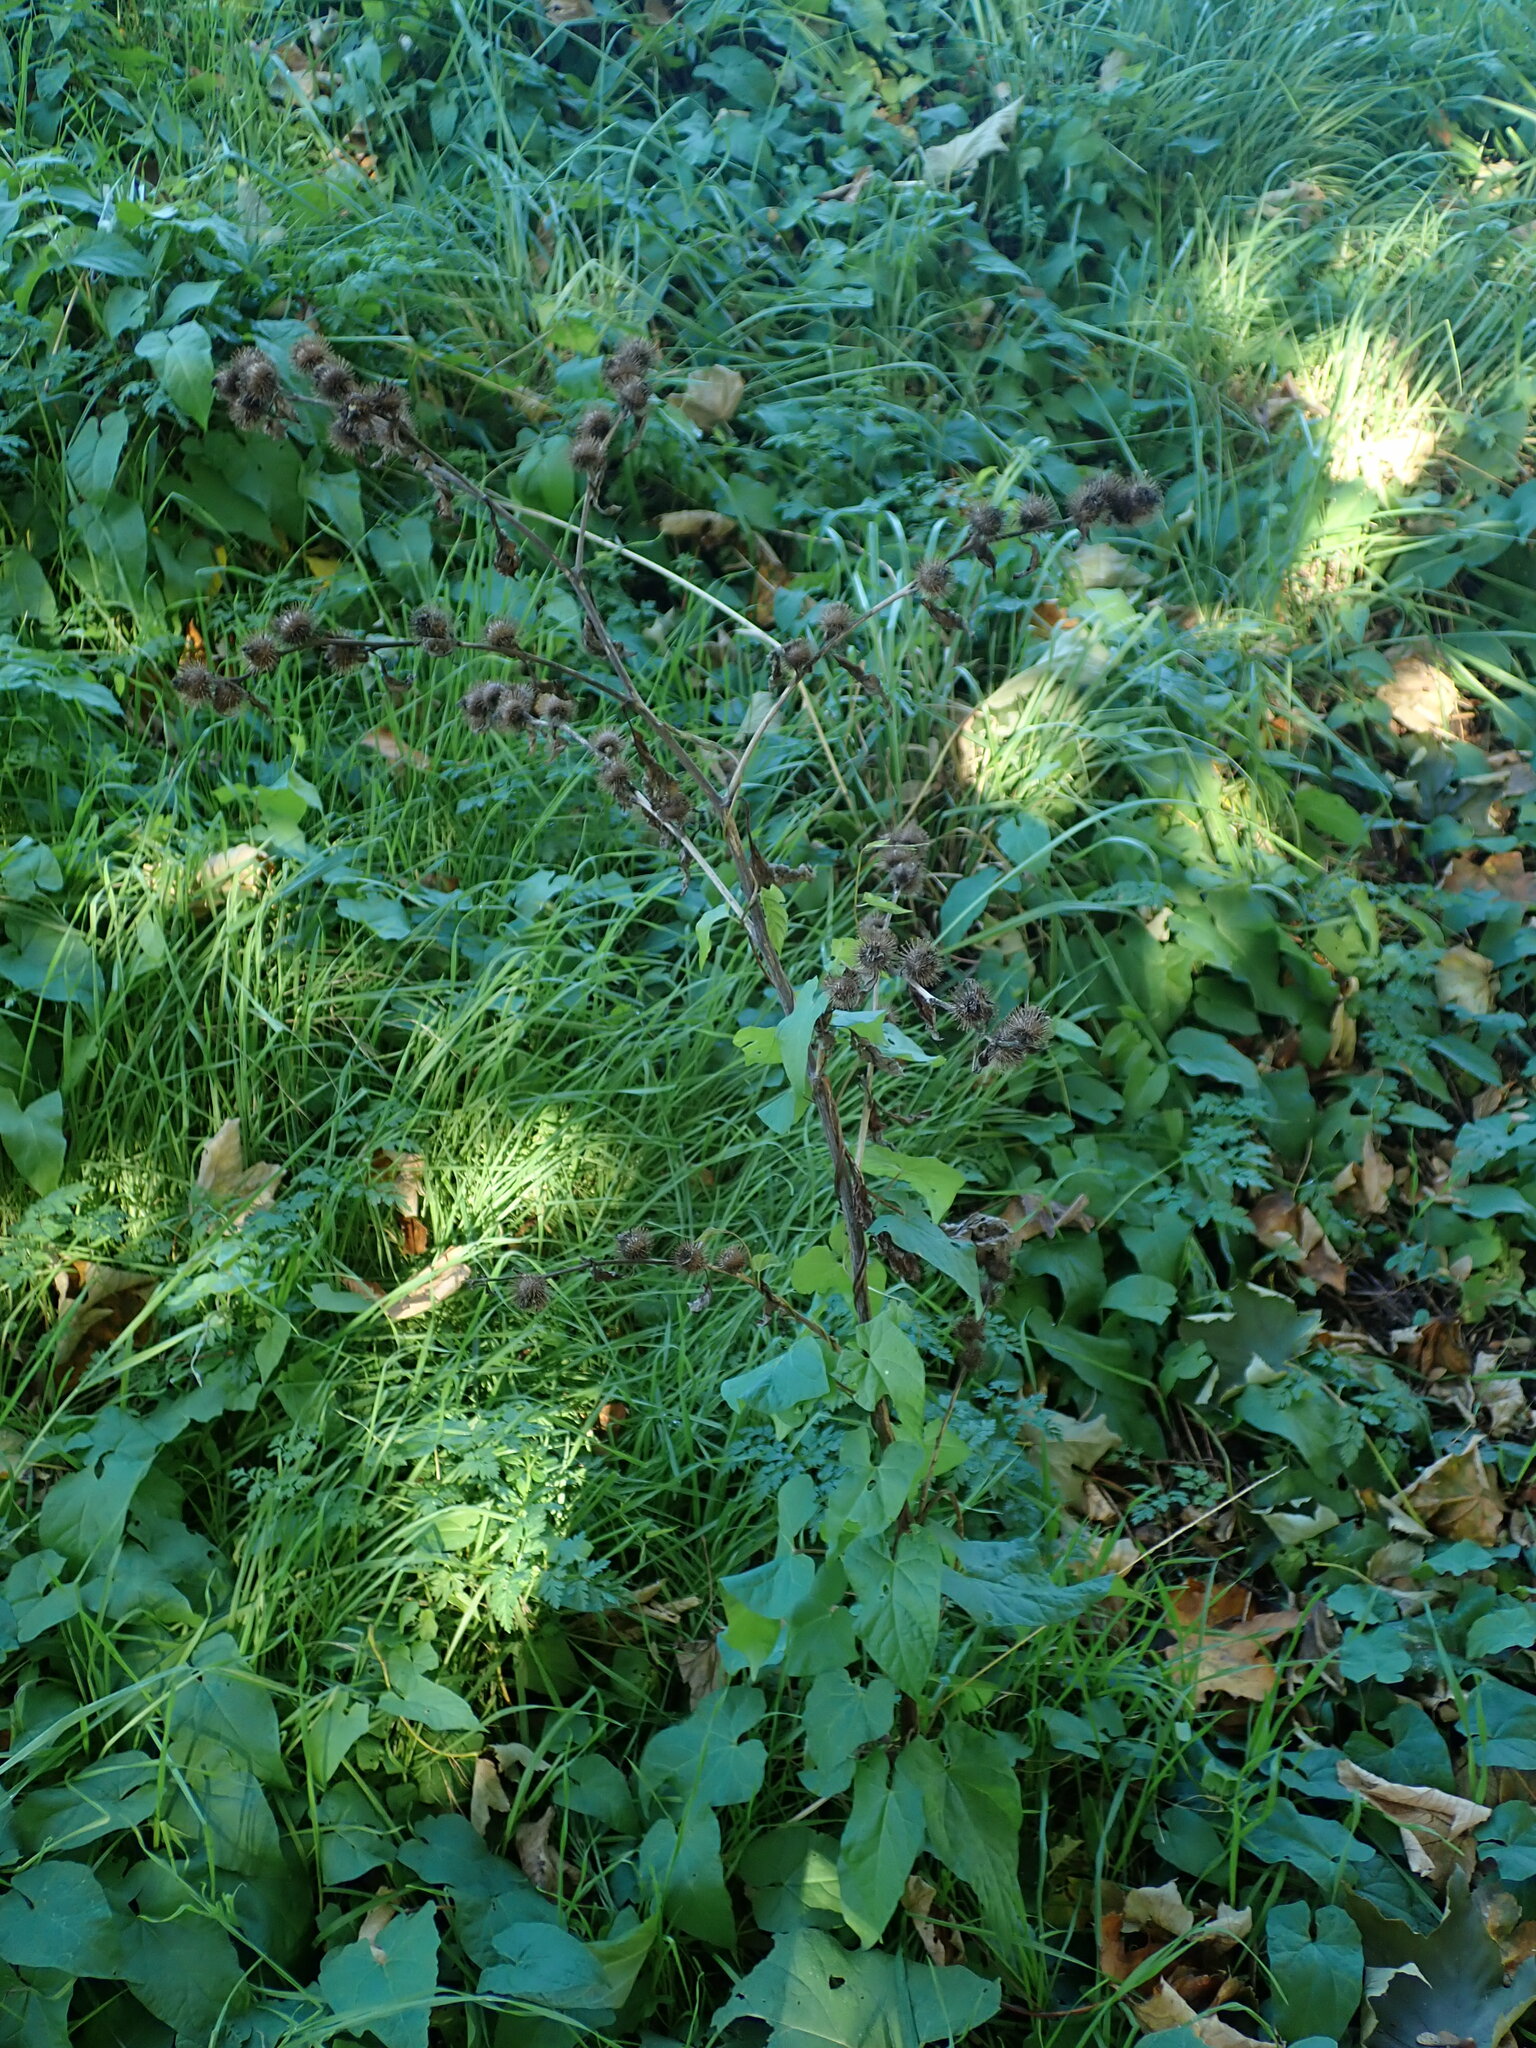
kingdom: Plantae
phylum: Tracheophyta
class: Magnoliopsida
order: Asterales
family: Asteraceae
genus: Arctium
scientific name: Arctium minus
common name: Lesser burdock
